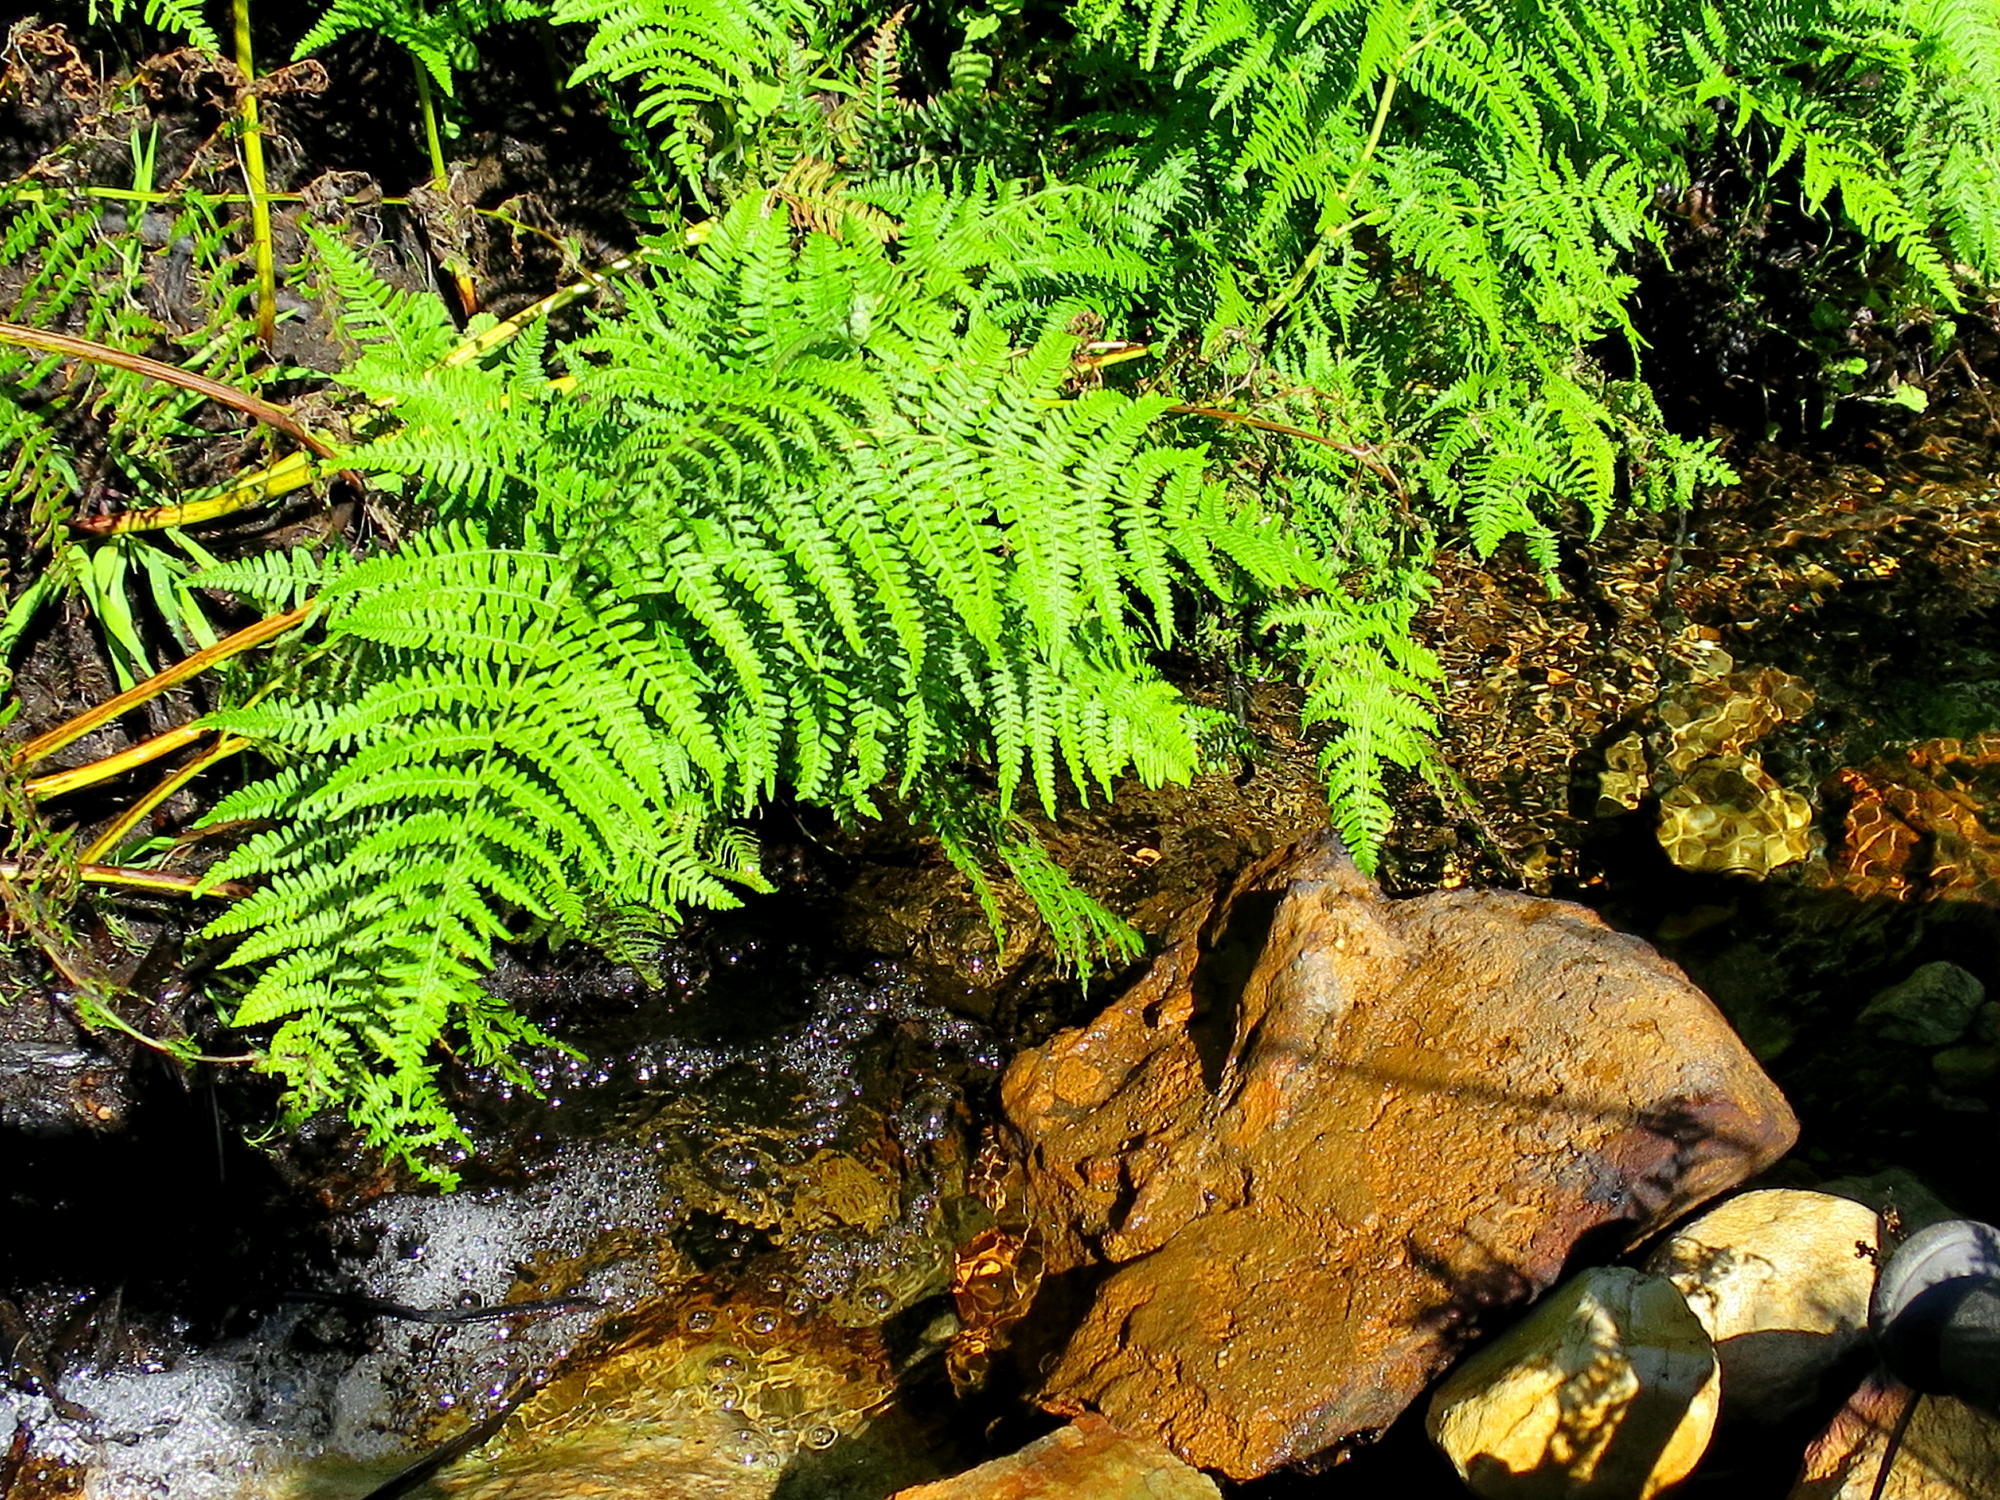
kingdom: Plantae
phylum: Tracheophyta
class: Polypodiopsida
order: Polypodiales
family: Dennstaedtiaceae
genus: Pteridium
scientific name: Pteridium aquilinum
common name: Bracken
